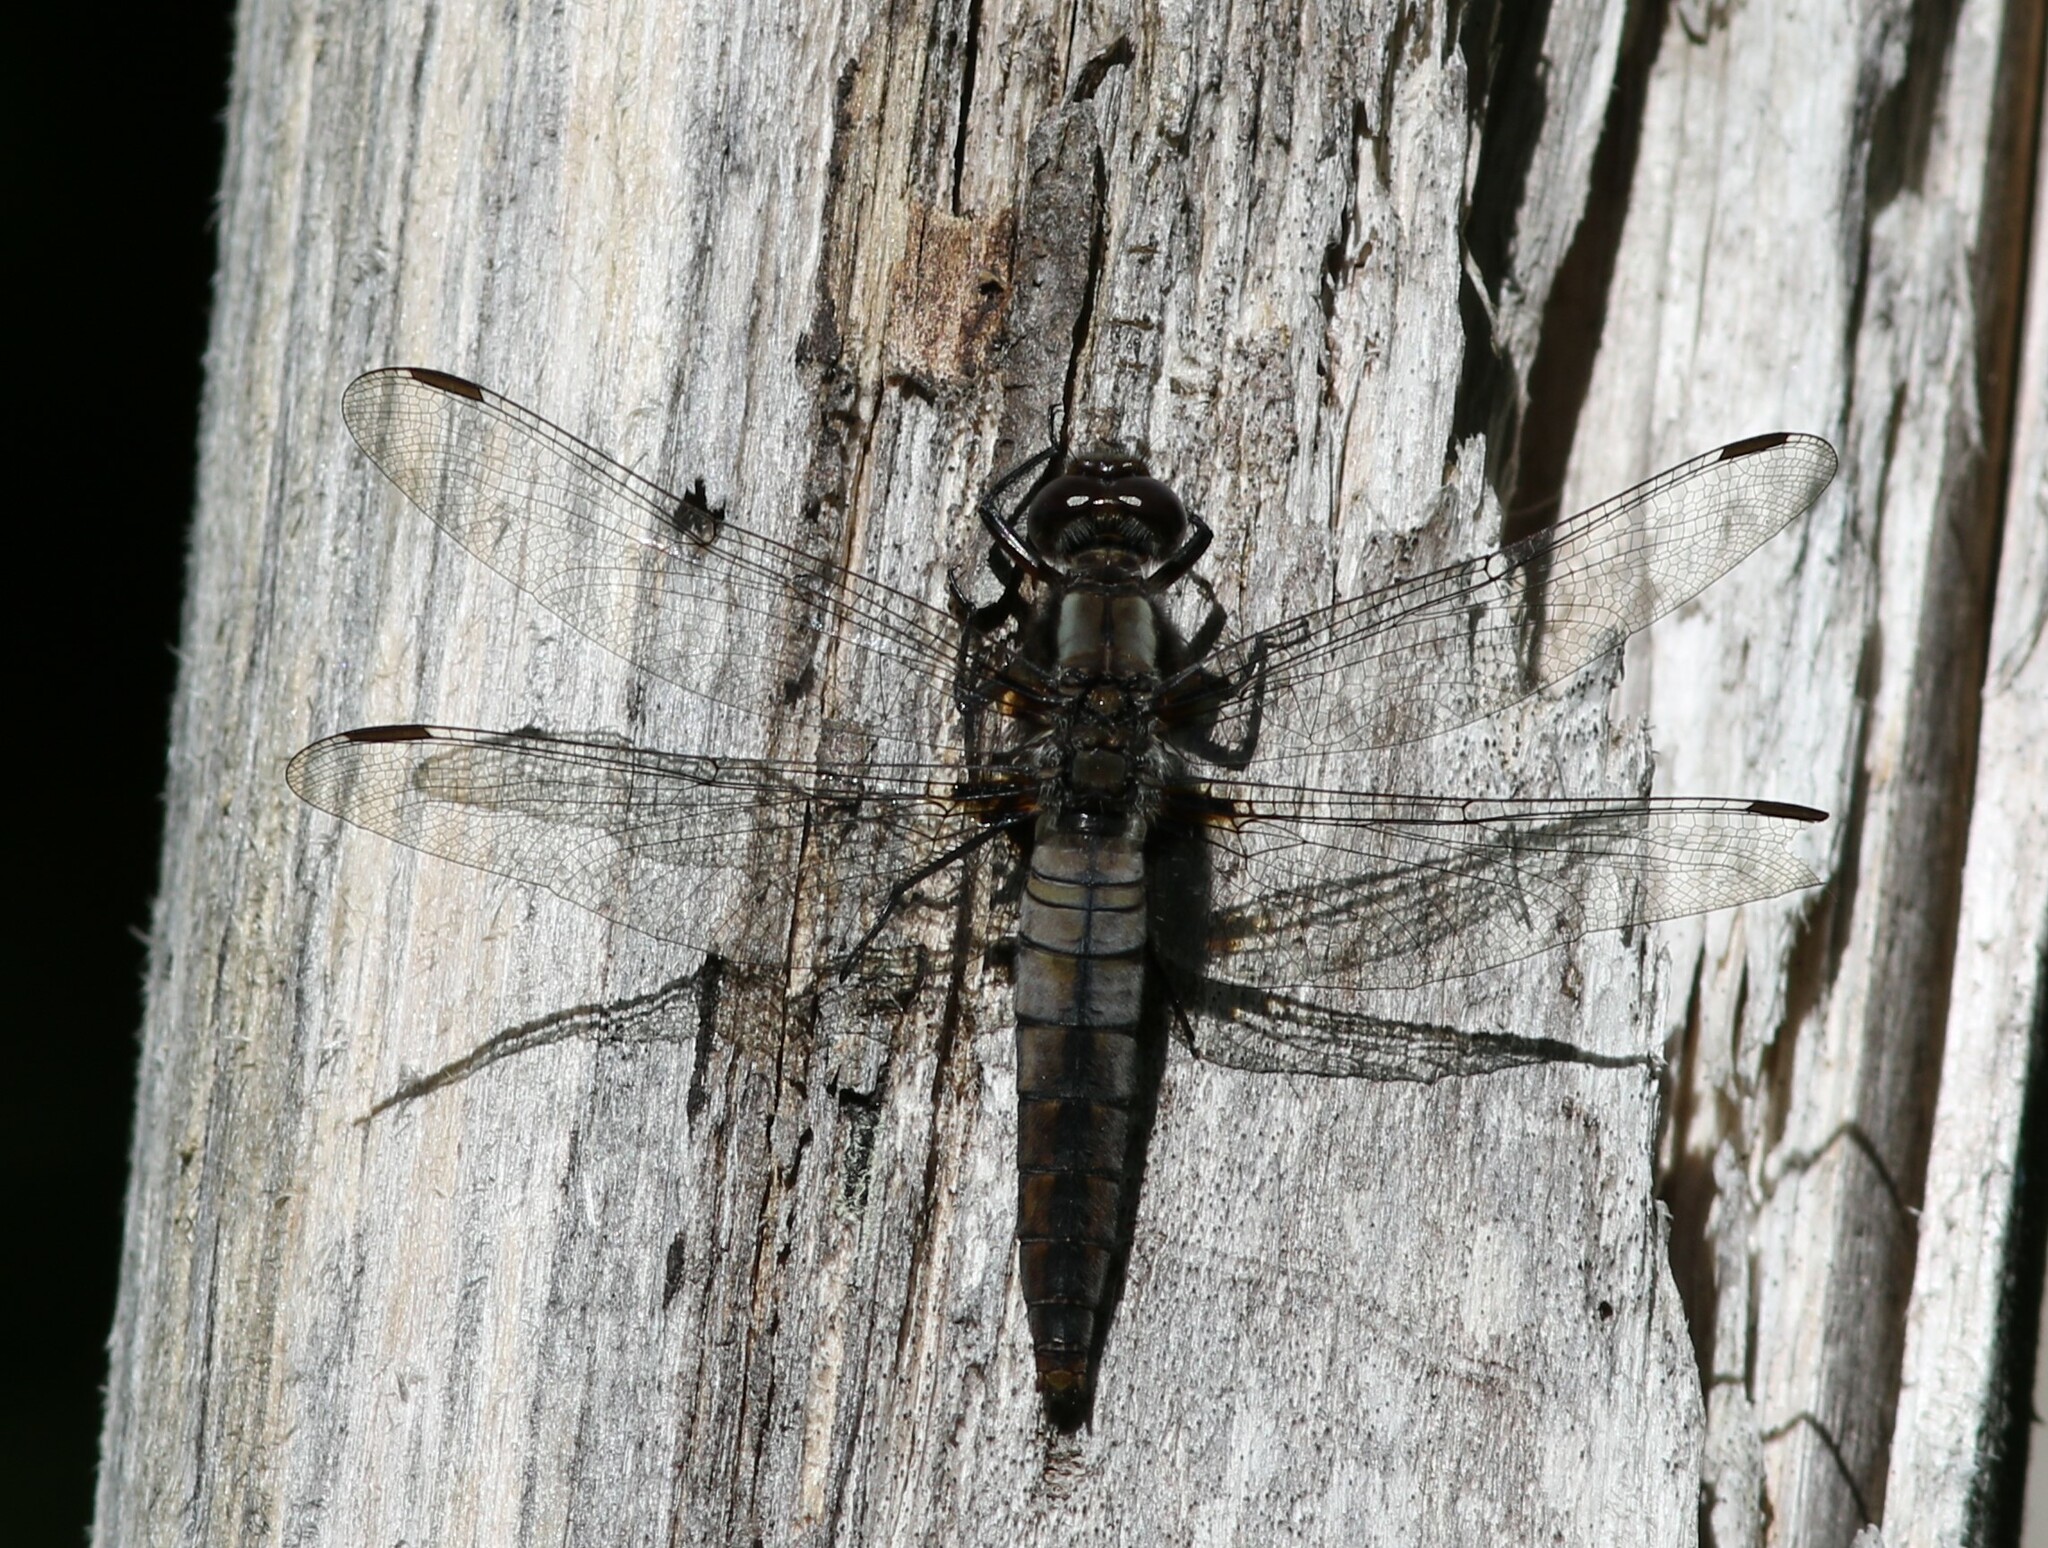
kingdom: Animalia
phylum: Arthropoda
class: Insecta
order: Odonata
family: Libellulidae
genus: Ladona
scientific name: Ladona julia
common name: Chalk-fronted corporal
